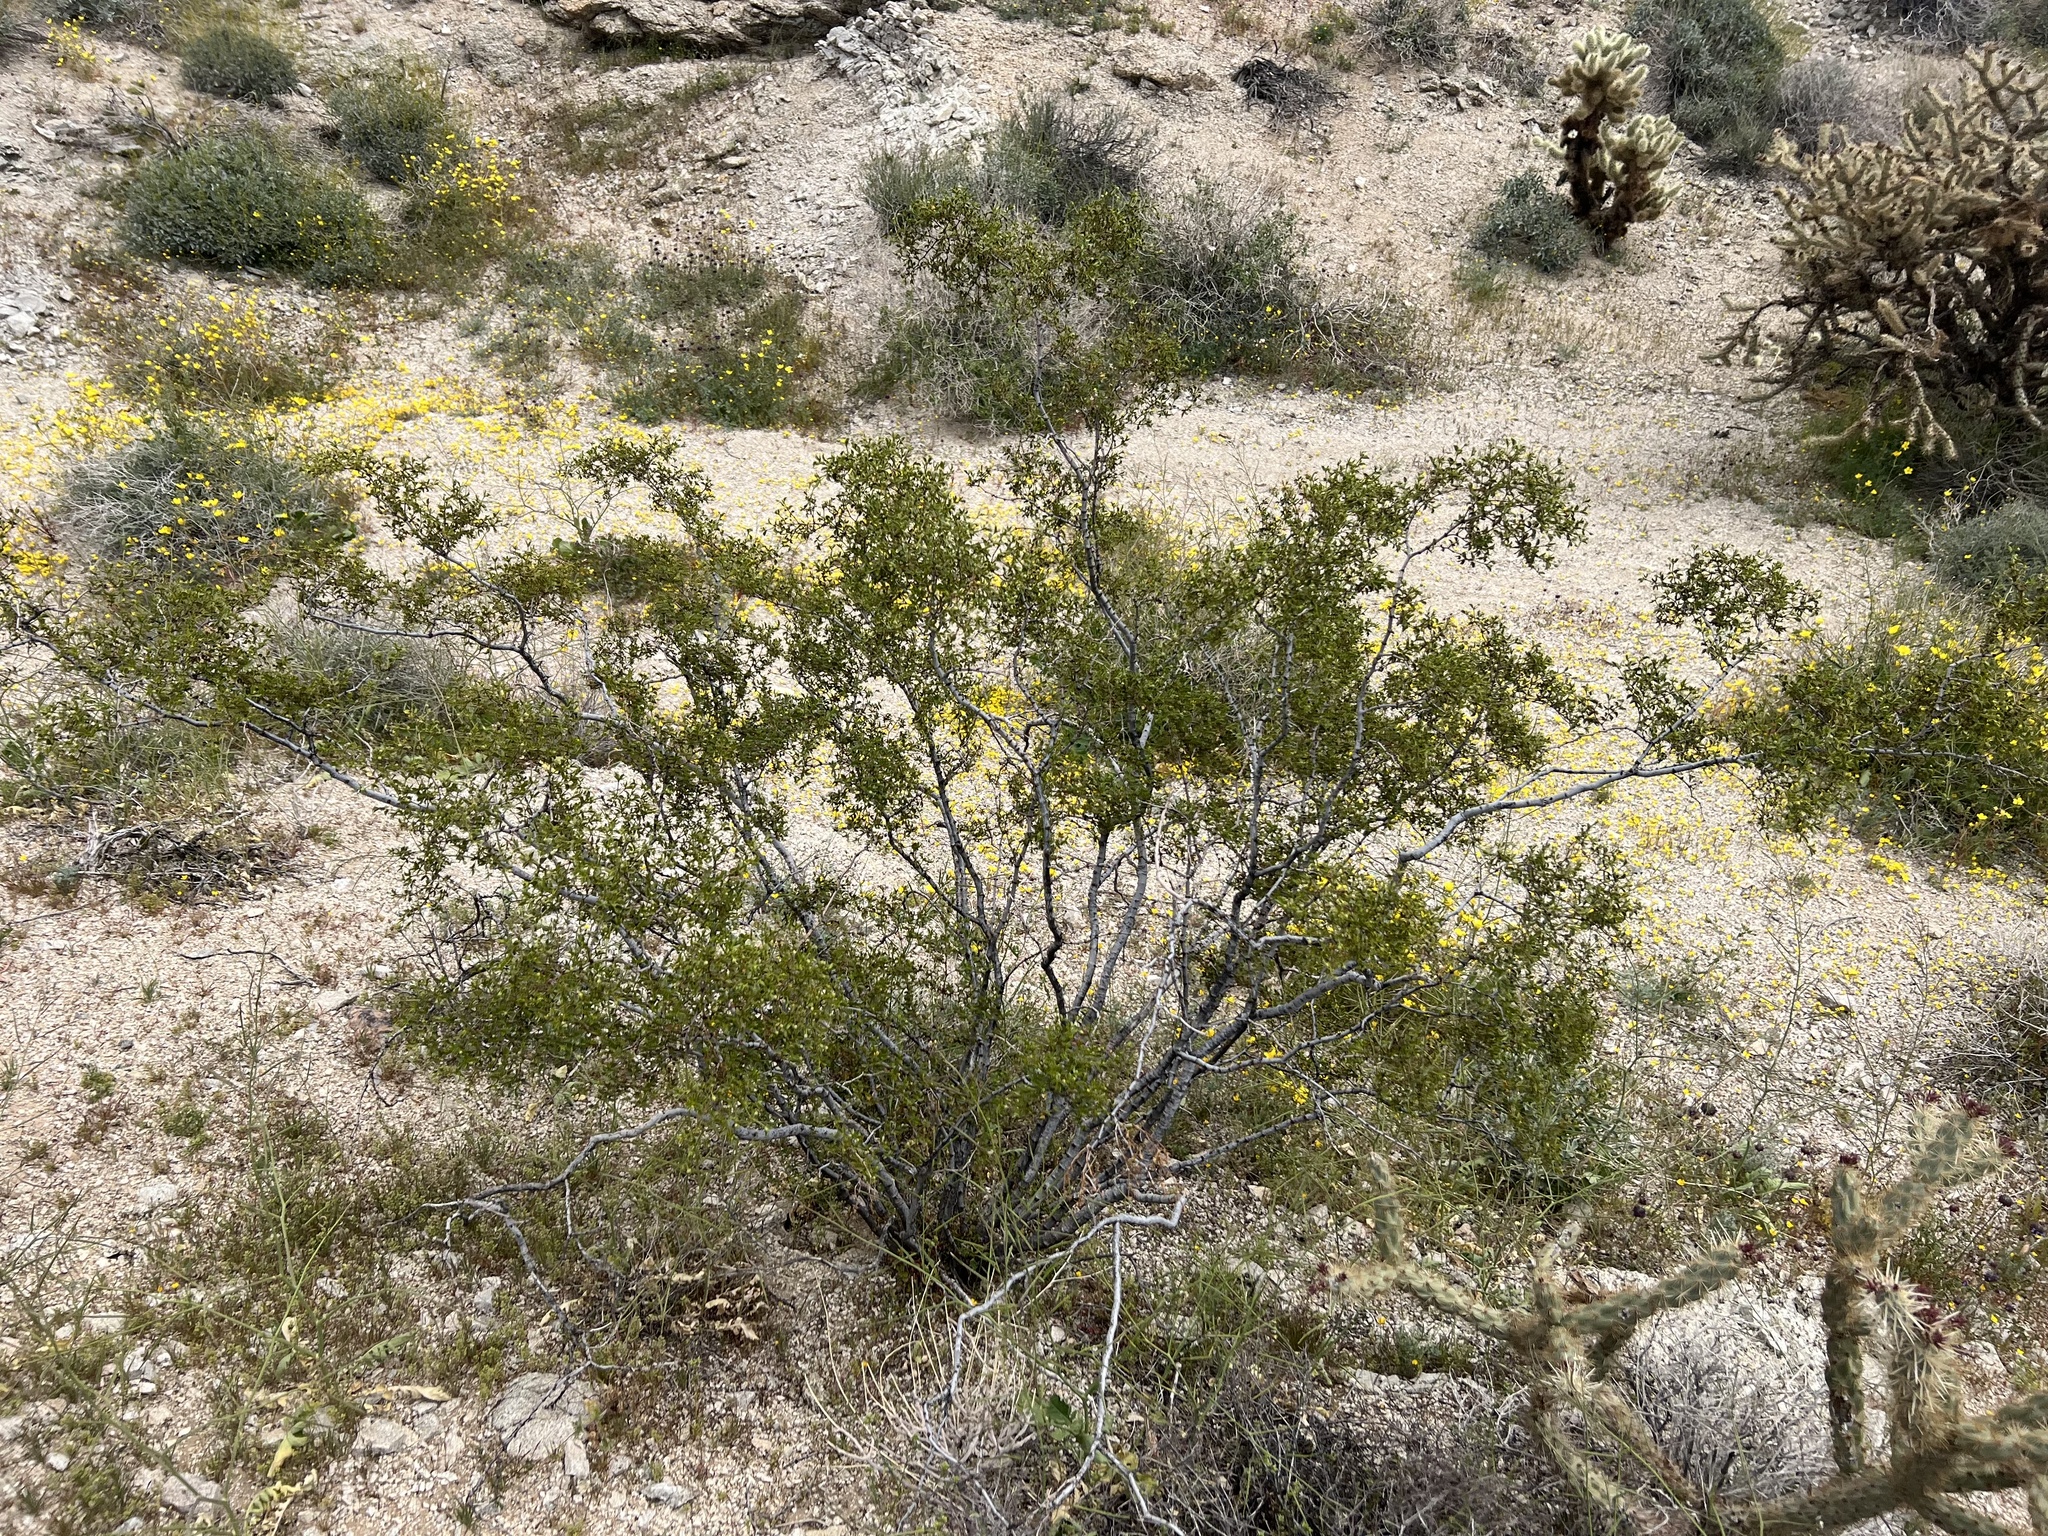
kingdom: Plantae
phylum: Tracheophyta
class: Magnoliopsida
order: Zygophyllales
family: Zygophyllaceae
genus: Larrea
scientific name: Larrea tridentata
